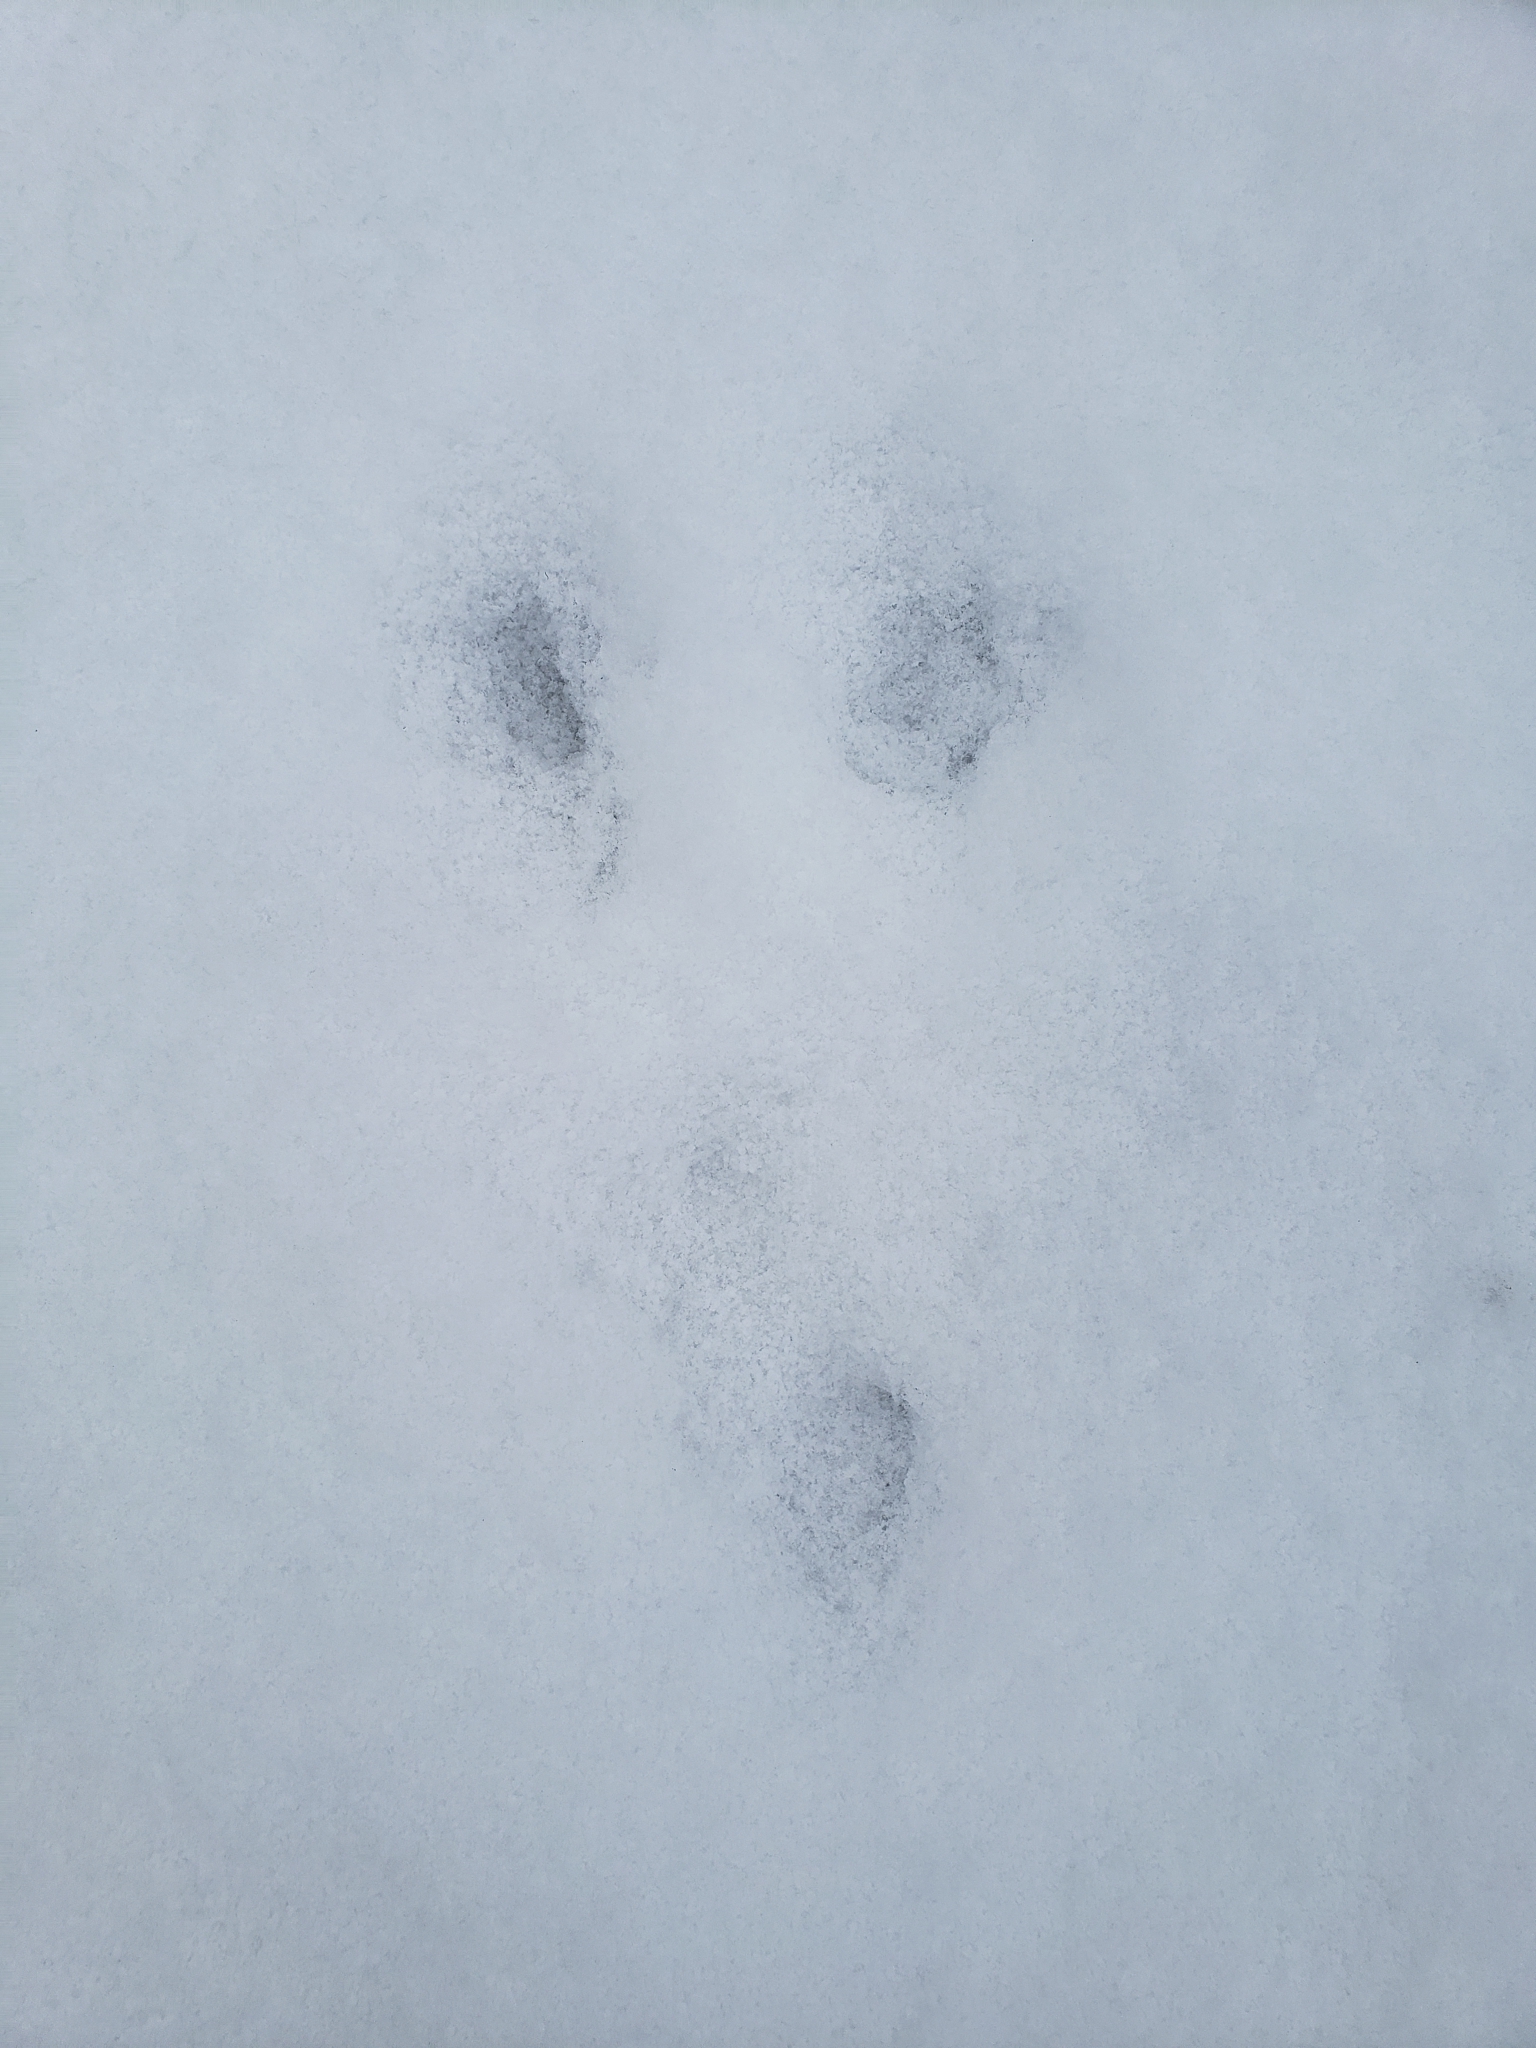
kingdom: Animalia
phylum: Chordata
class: Mammalia
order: Lagomorpha
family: Leporidae
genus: Sylvilagus
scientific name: Sylvilagus floridanus
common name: Eastern cottontail
